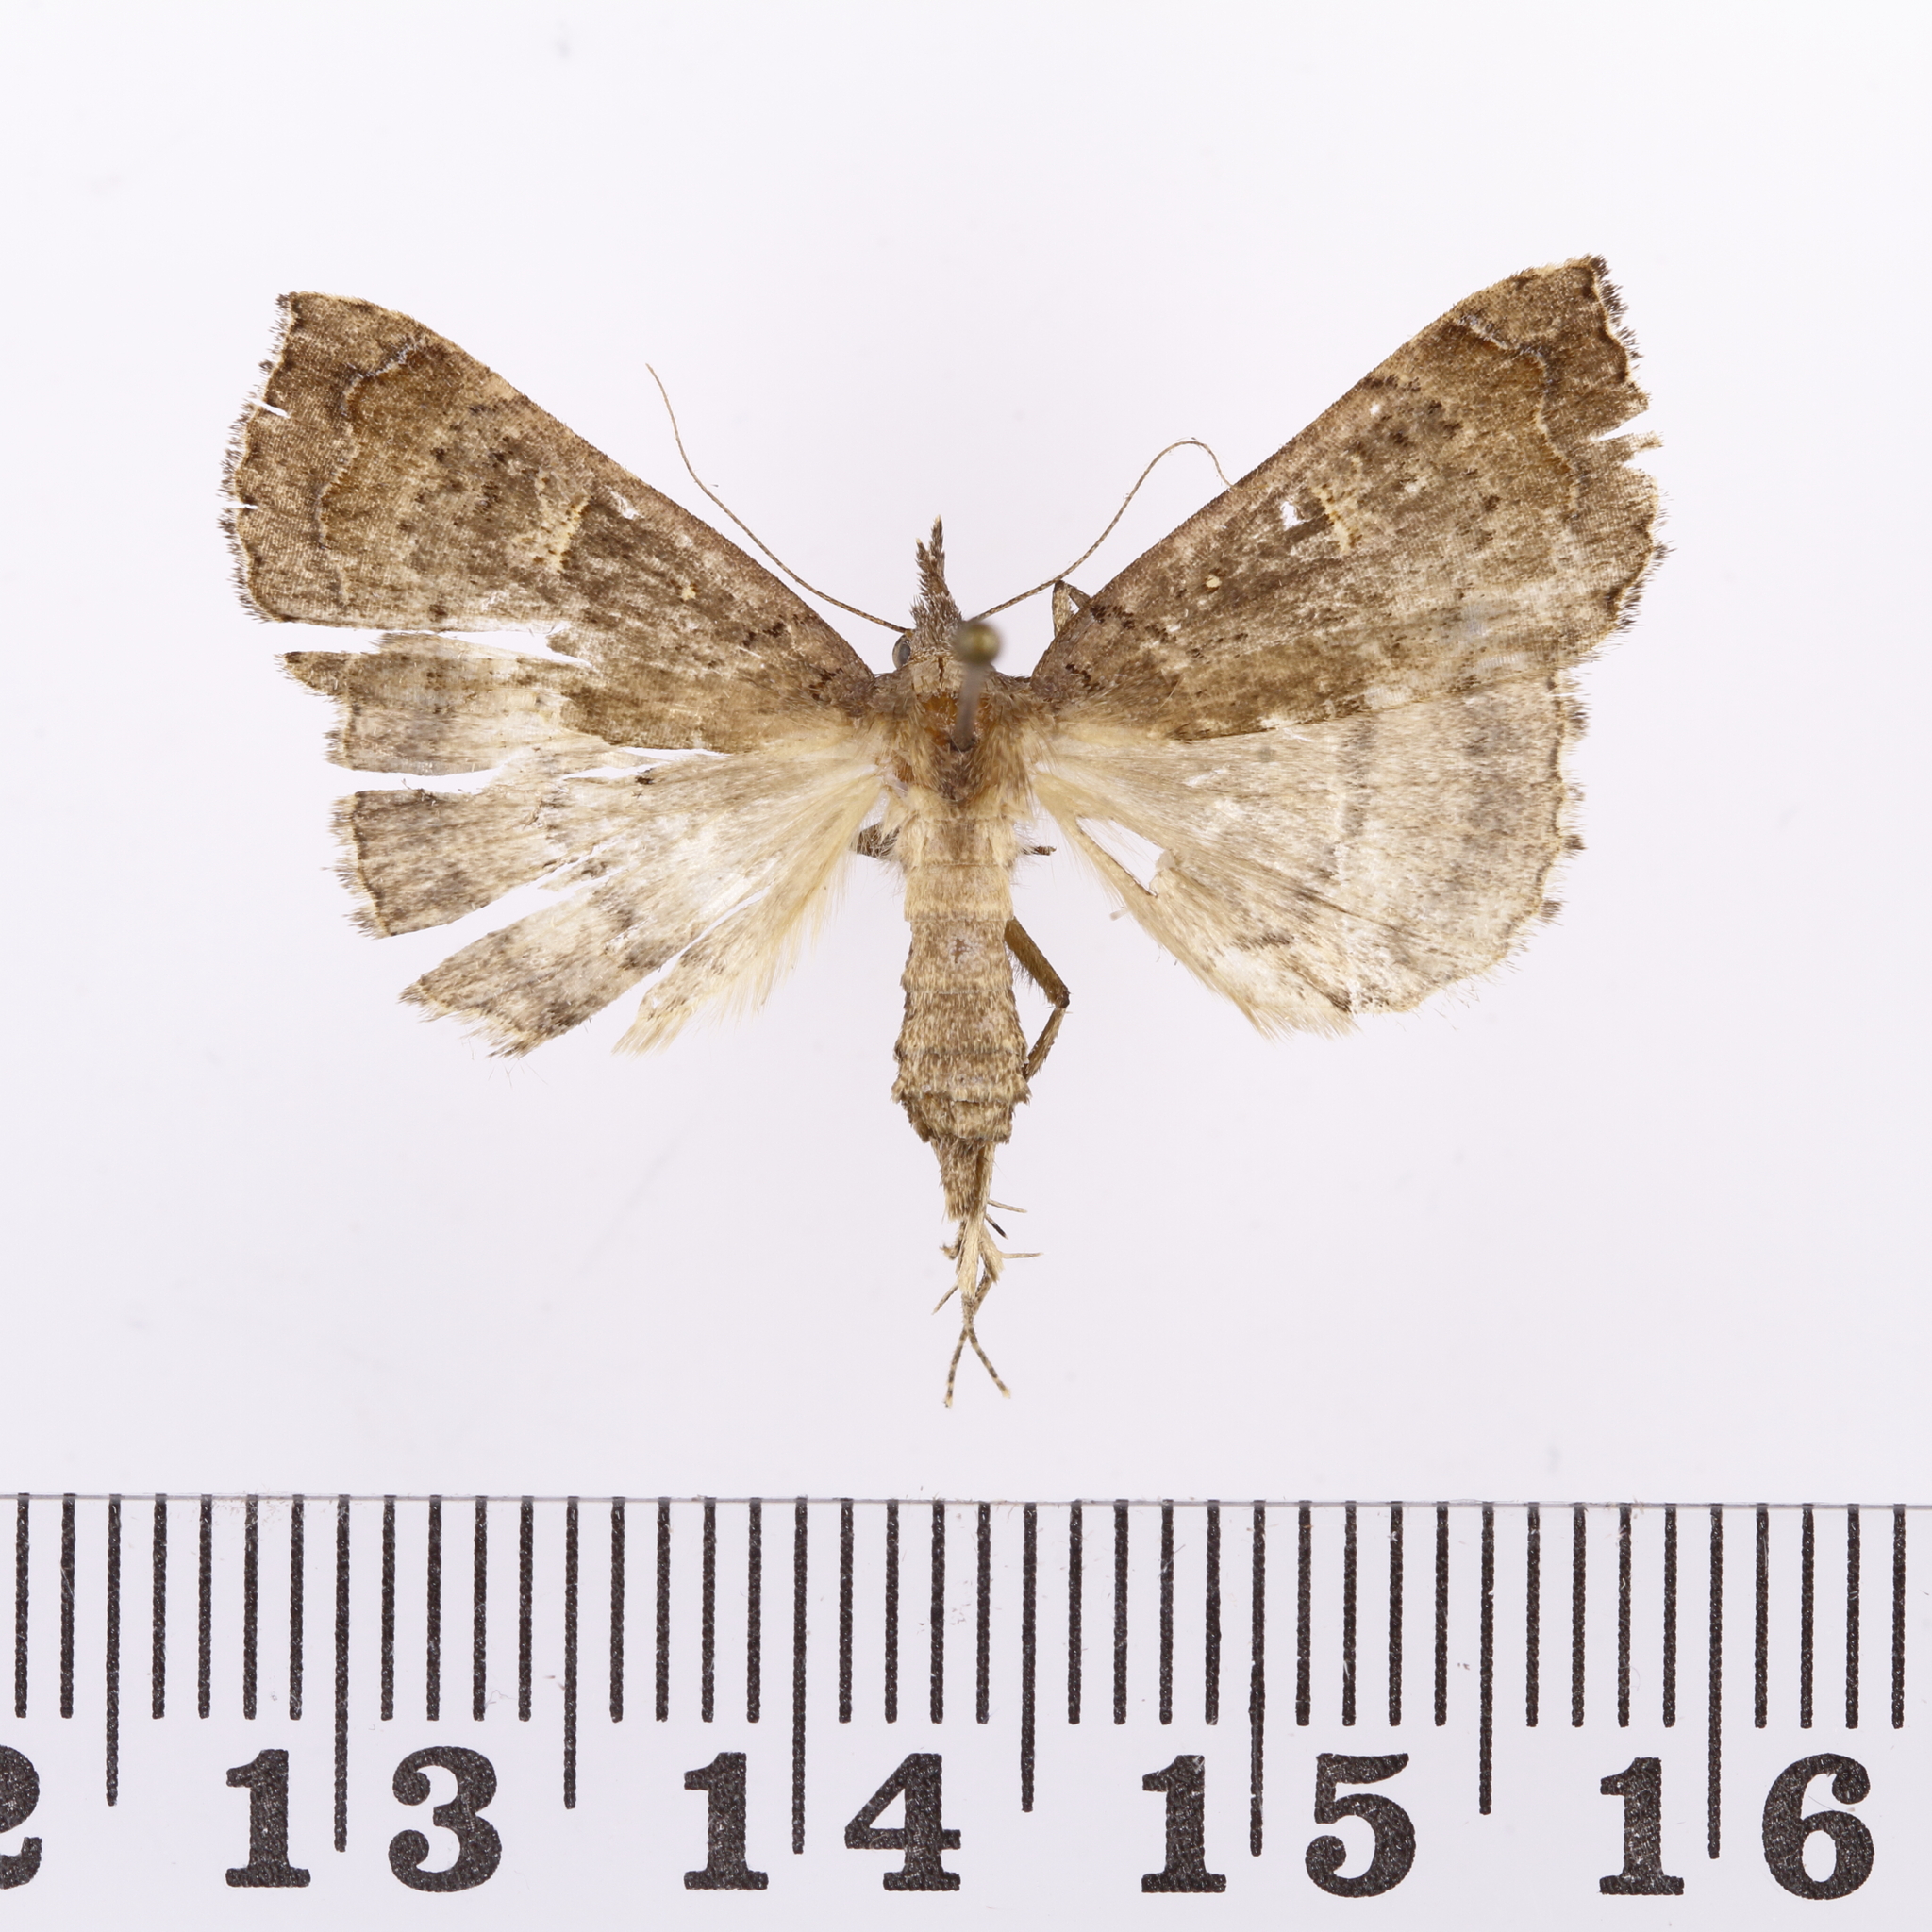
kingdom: Animalia
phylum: Arthropoda
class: Insecta
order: Lepidoptera
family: Erebidae
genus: Rhapsa
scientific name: Rhapsa scotosialis
